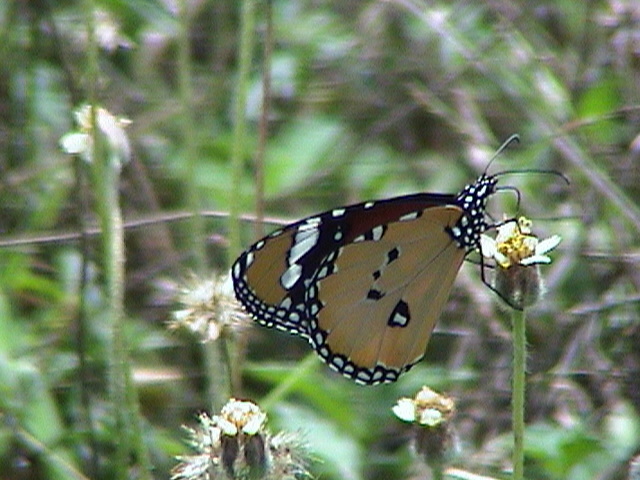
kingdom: Animalia
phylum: Arthropoda
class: Insecta
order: Lepidoptera
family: Nymphalidae
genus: Danaus
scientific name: Danaus chrysippus
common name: Plain tiger
